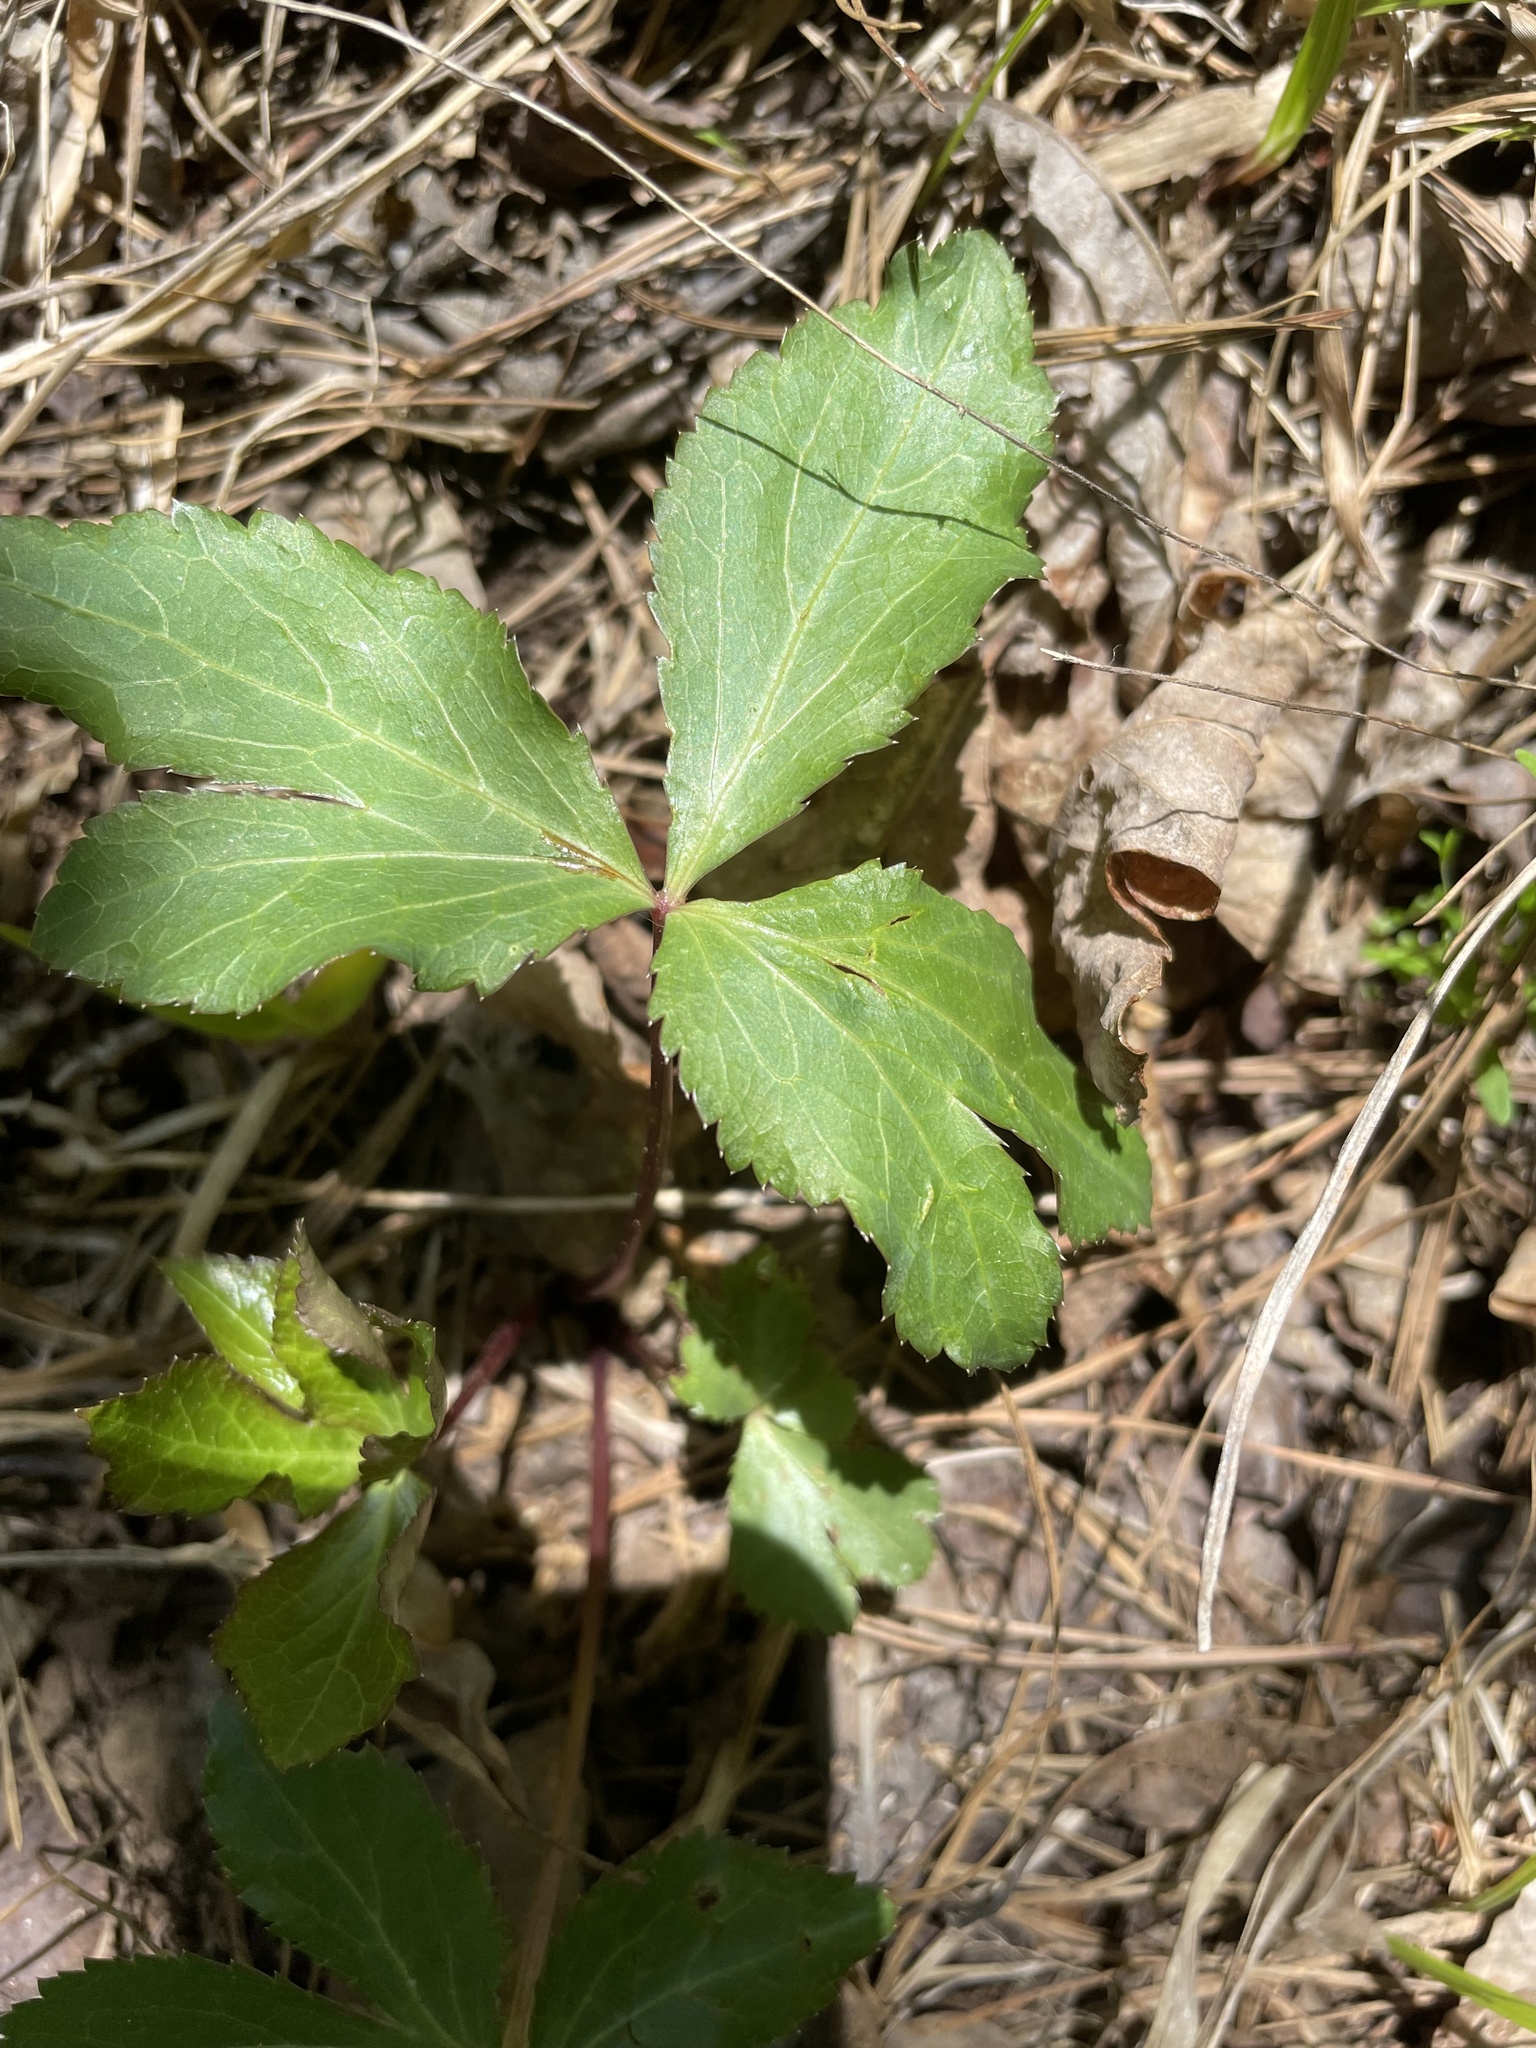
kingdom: Plantae
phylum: Tracheophyta
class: Magnoliopsida
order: Apiales
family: Apiaceae
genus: Sanicula
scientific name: Sanicula smallii
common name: Small's black snakeroot
